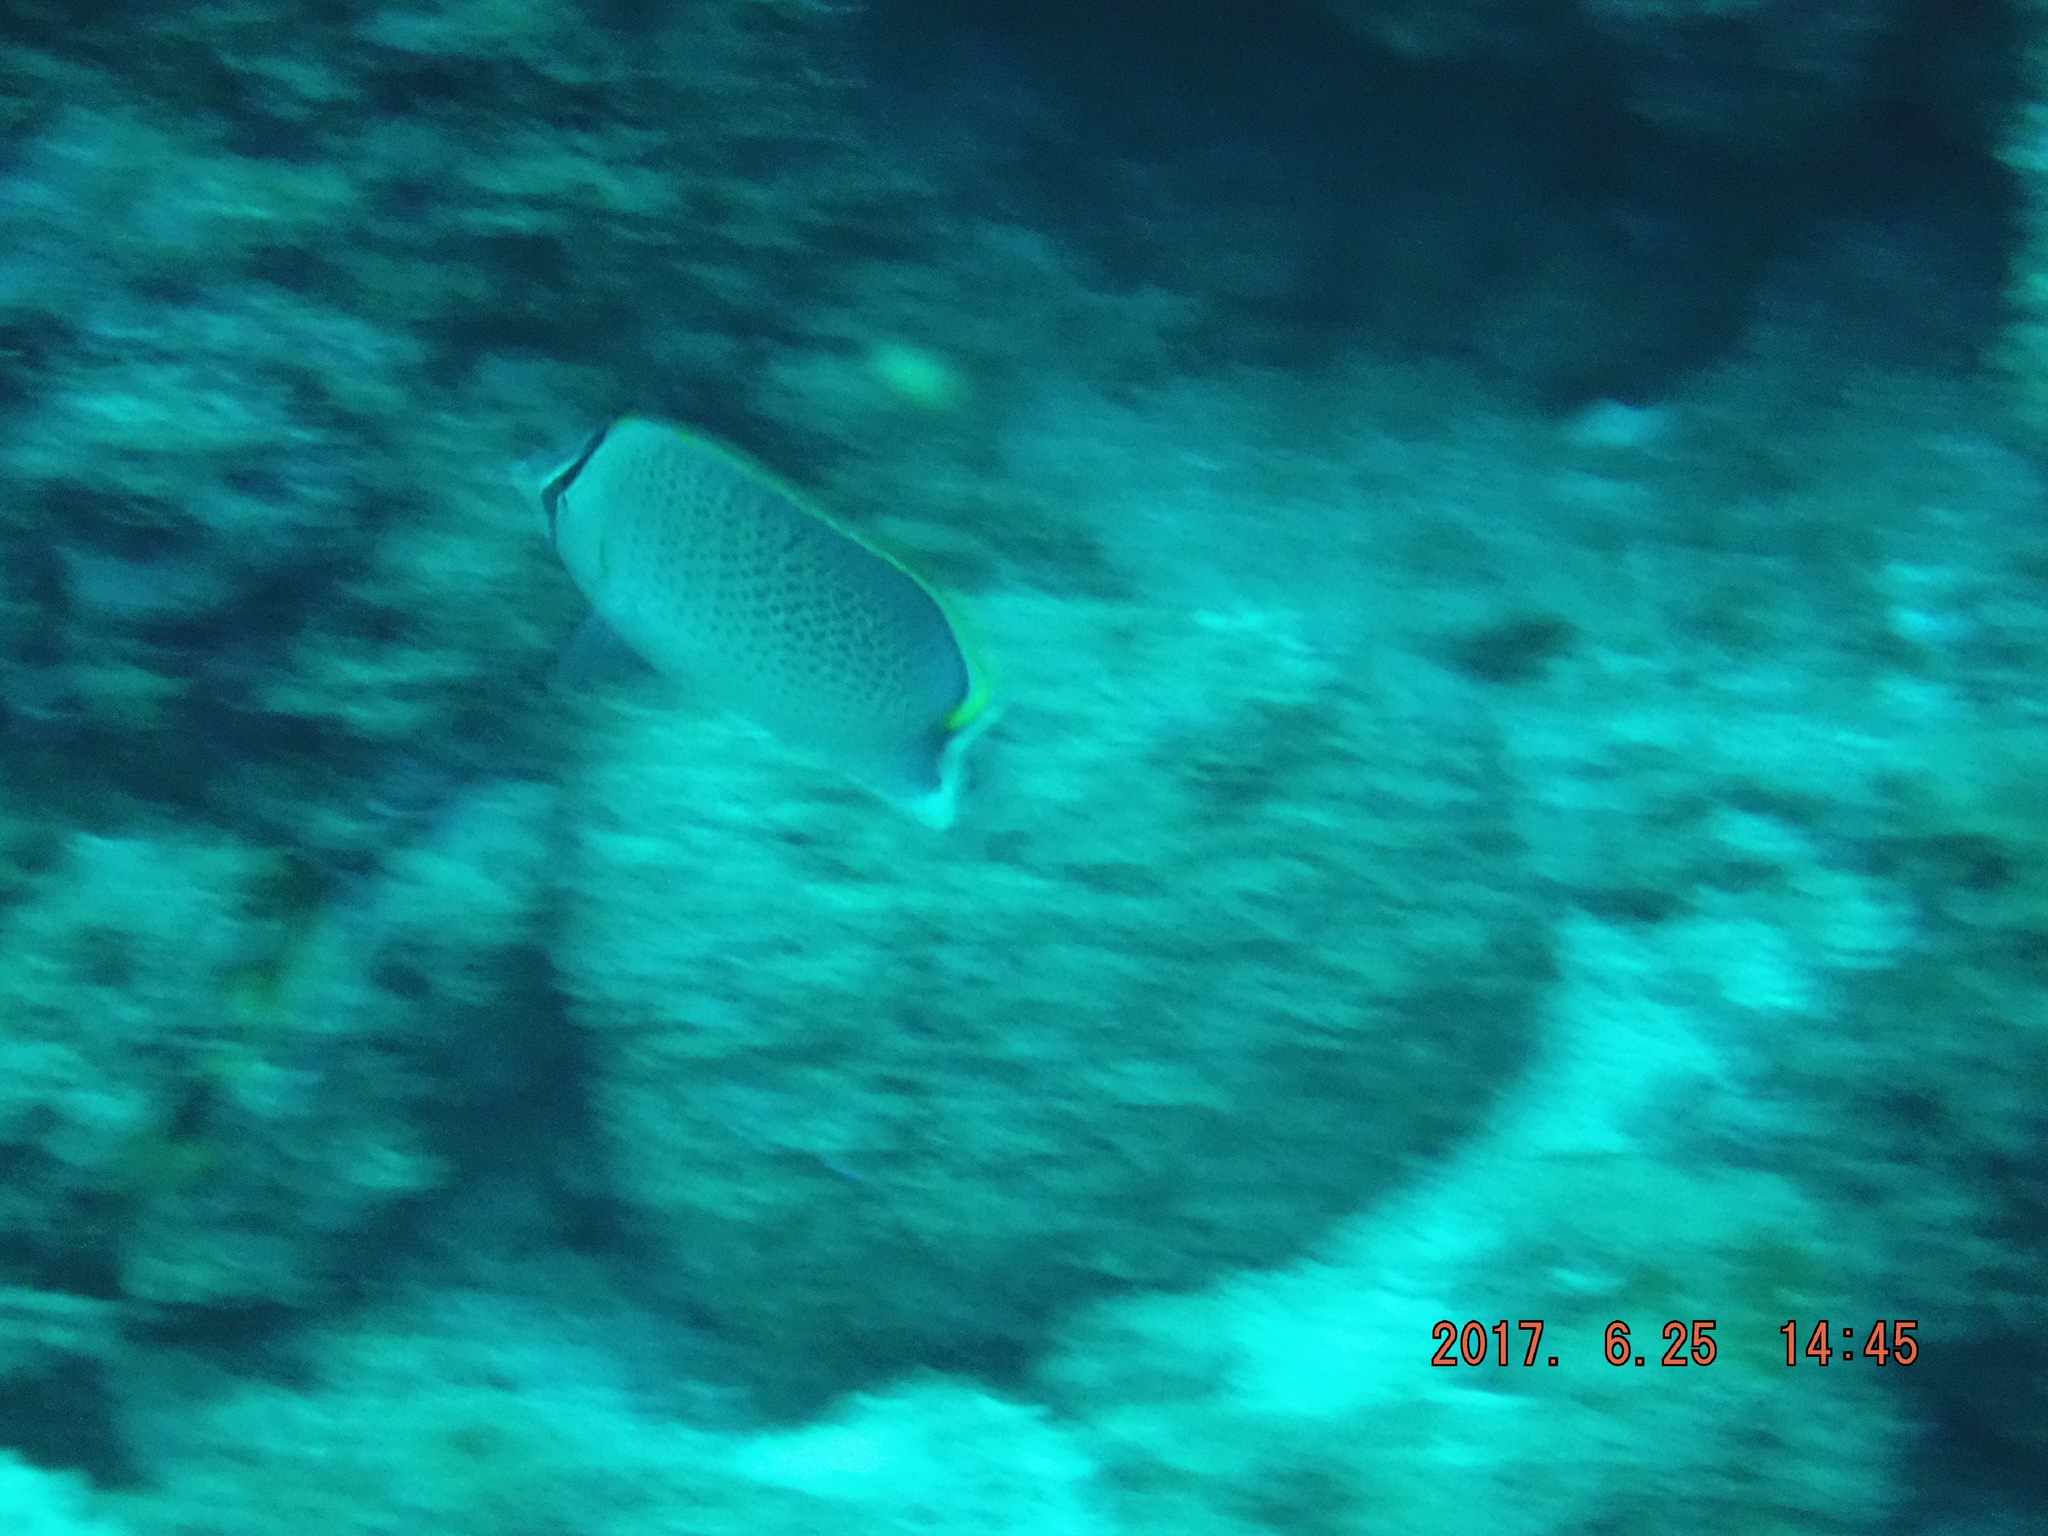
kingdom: Animalia
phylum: Chordata
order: Perciformes
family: Chaetodontidae
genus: Chaetodon
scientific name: Chaetodon guttatissimus
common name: Spotted butterflyfish
